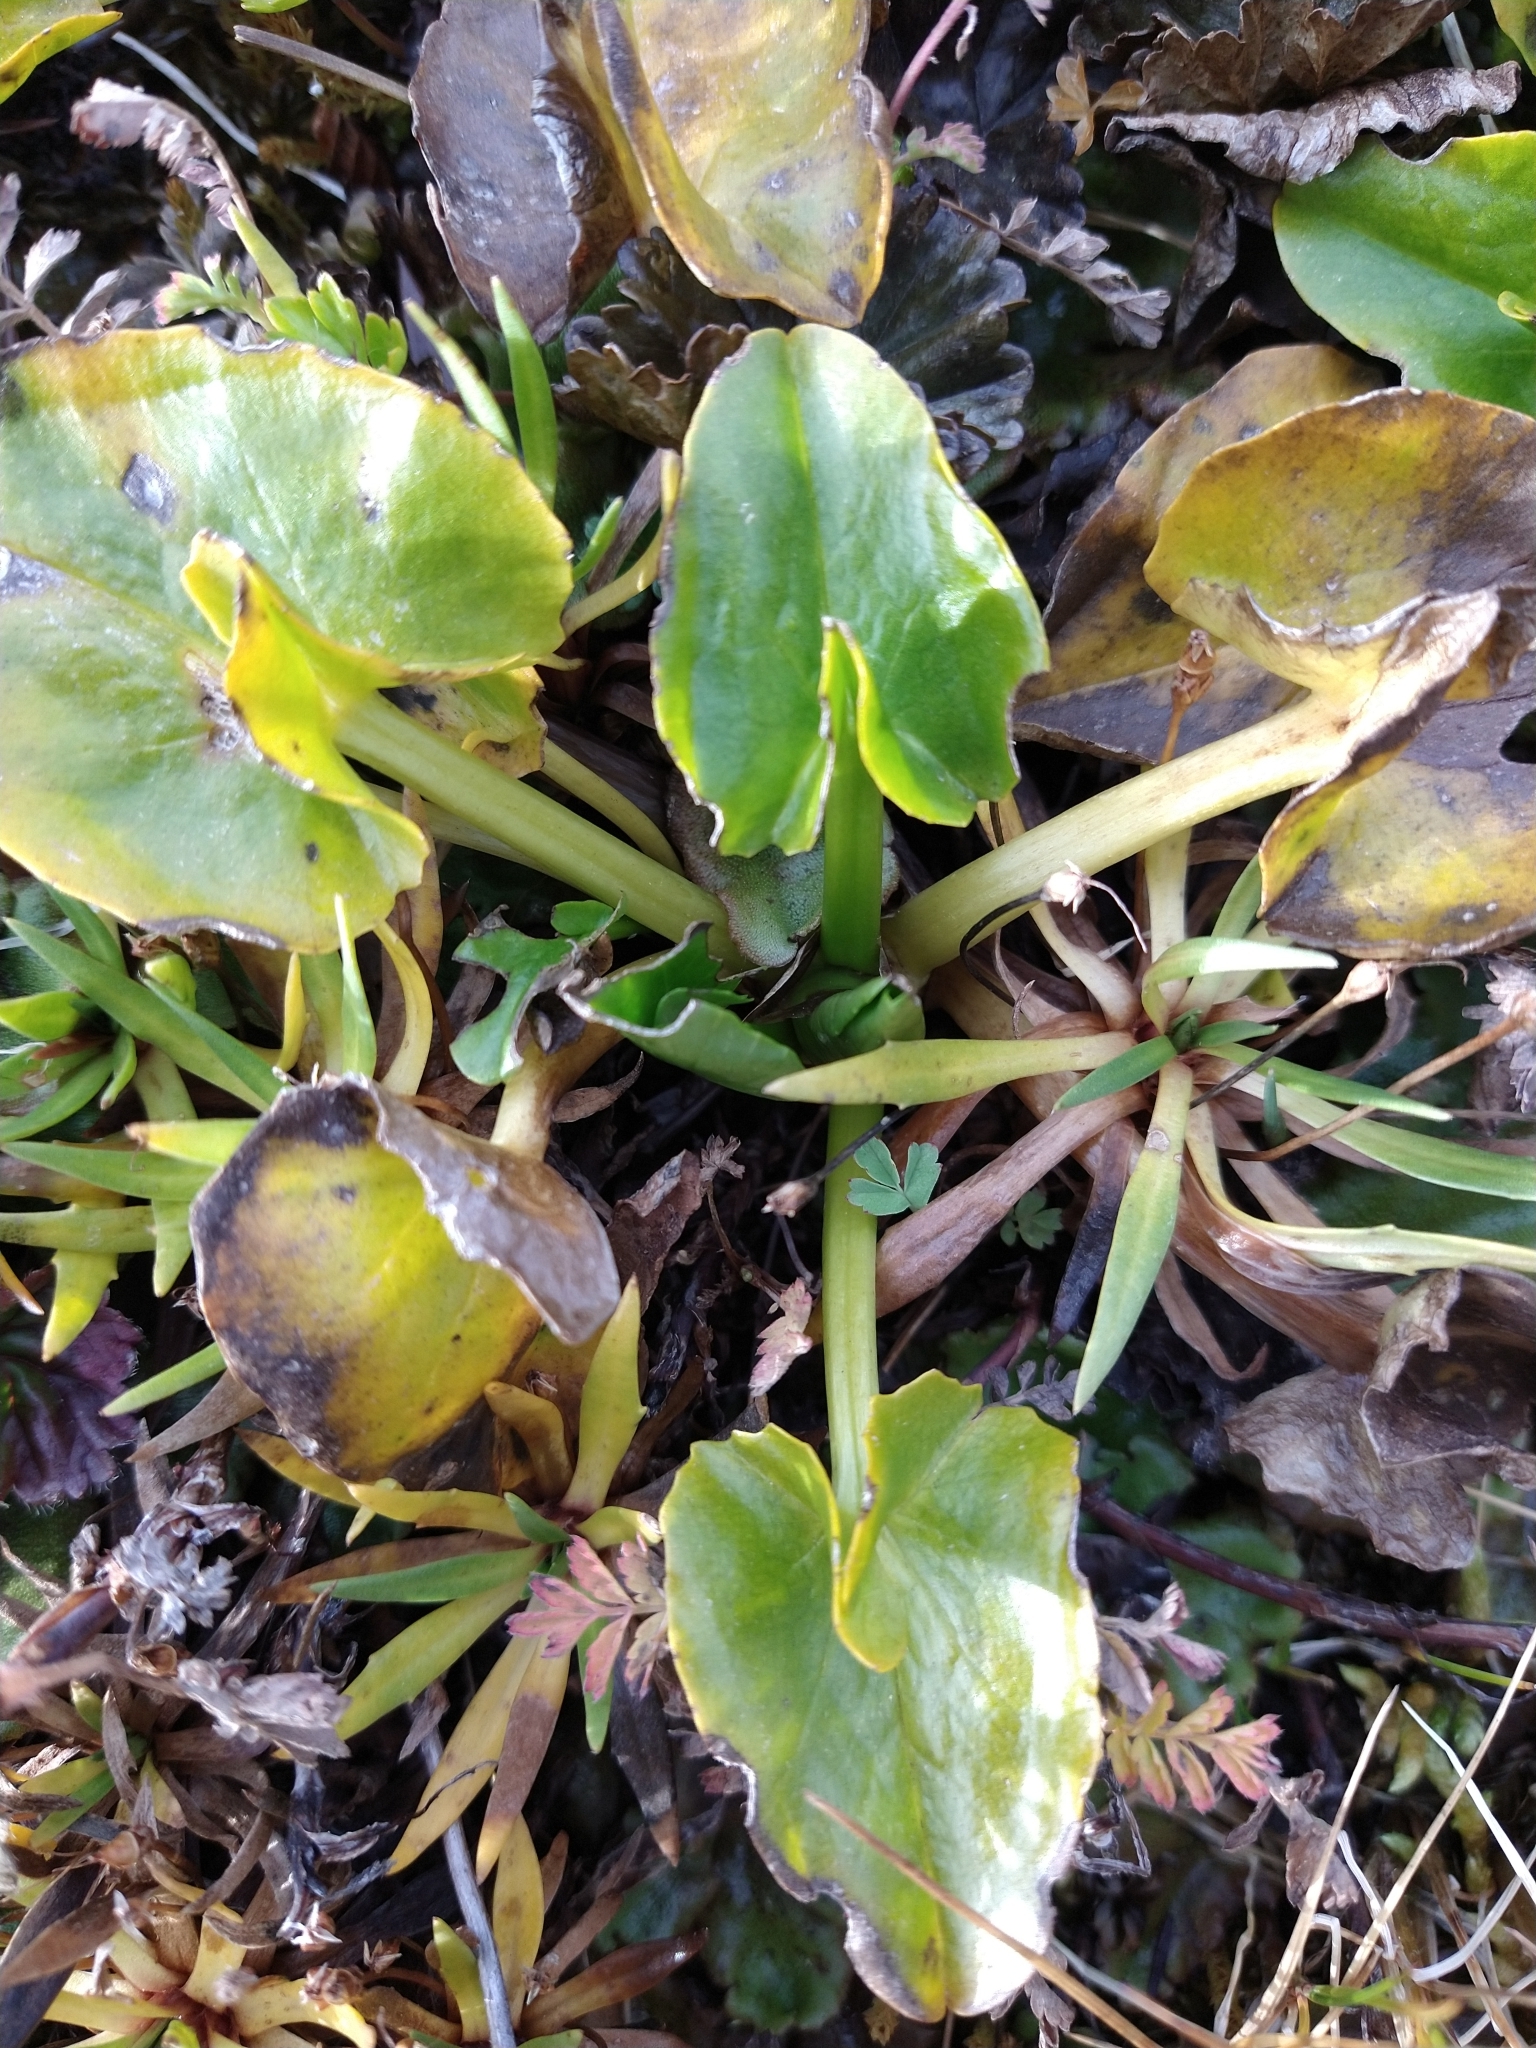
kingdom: Plantae
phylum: Tracheophyta
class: Magnoliopsida
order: Ranunculales
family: Ranunculaceae
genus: Caltha
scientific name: Caltha sagittata
